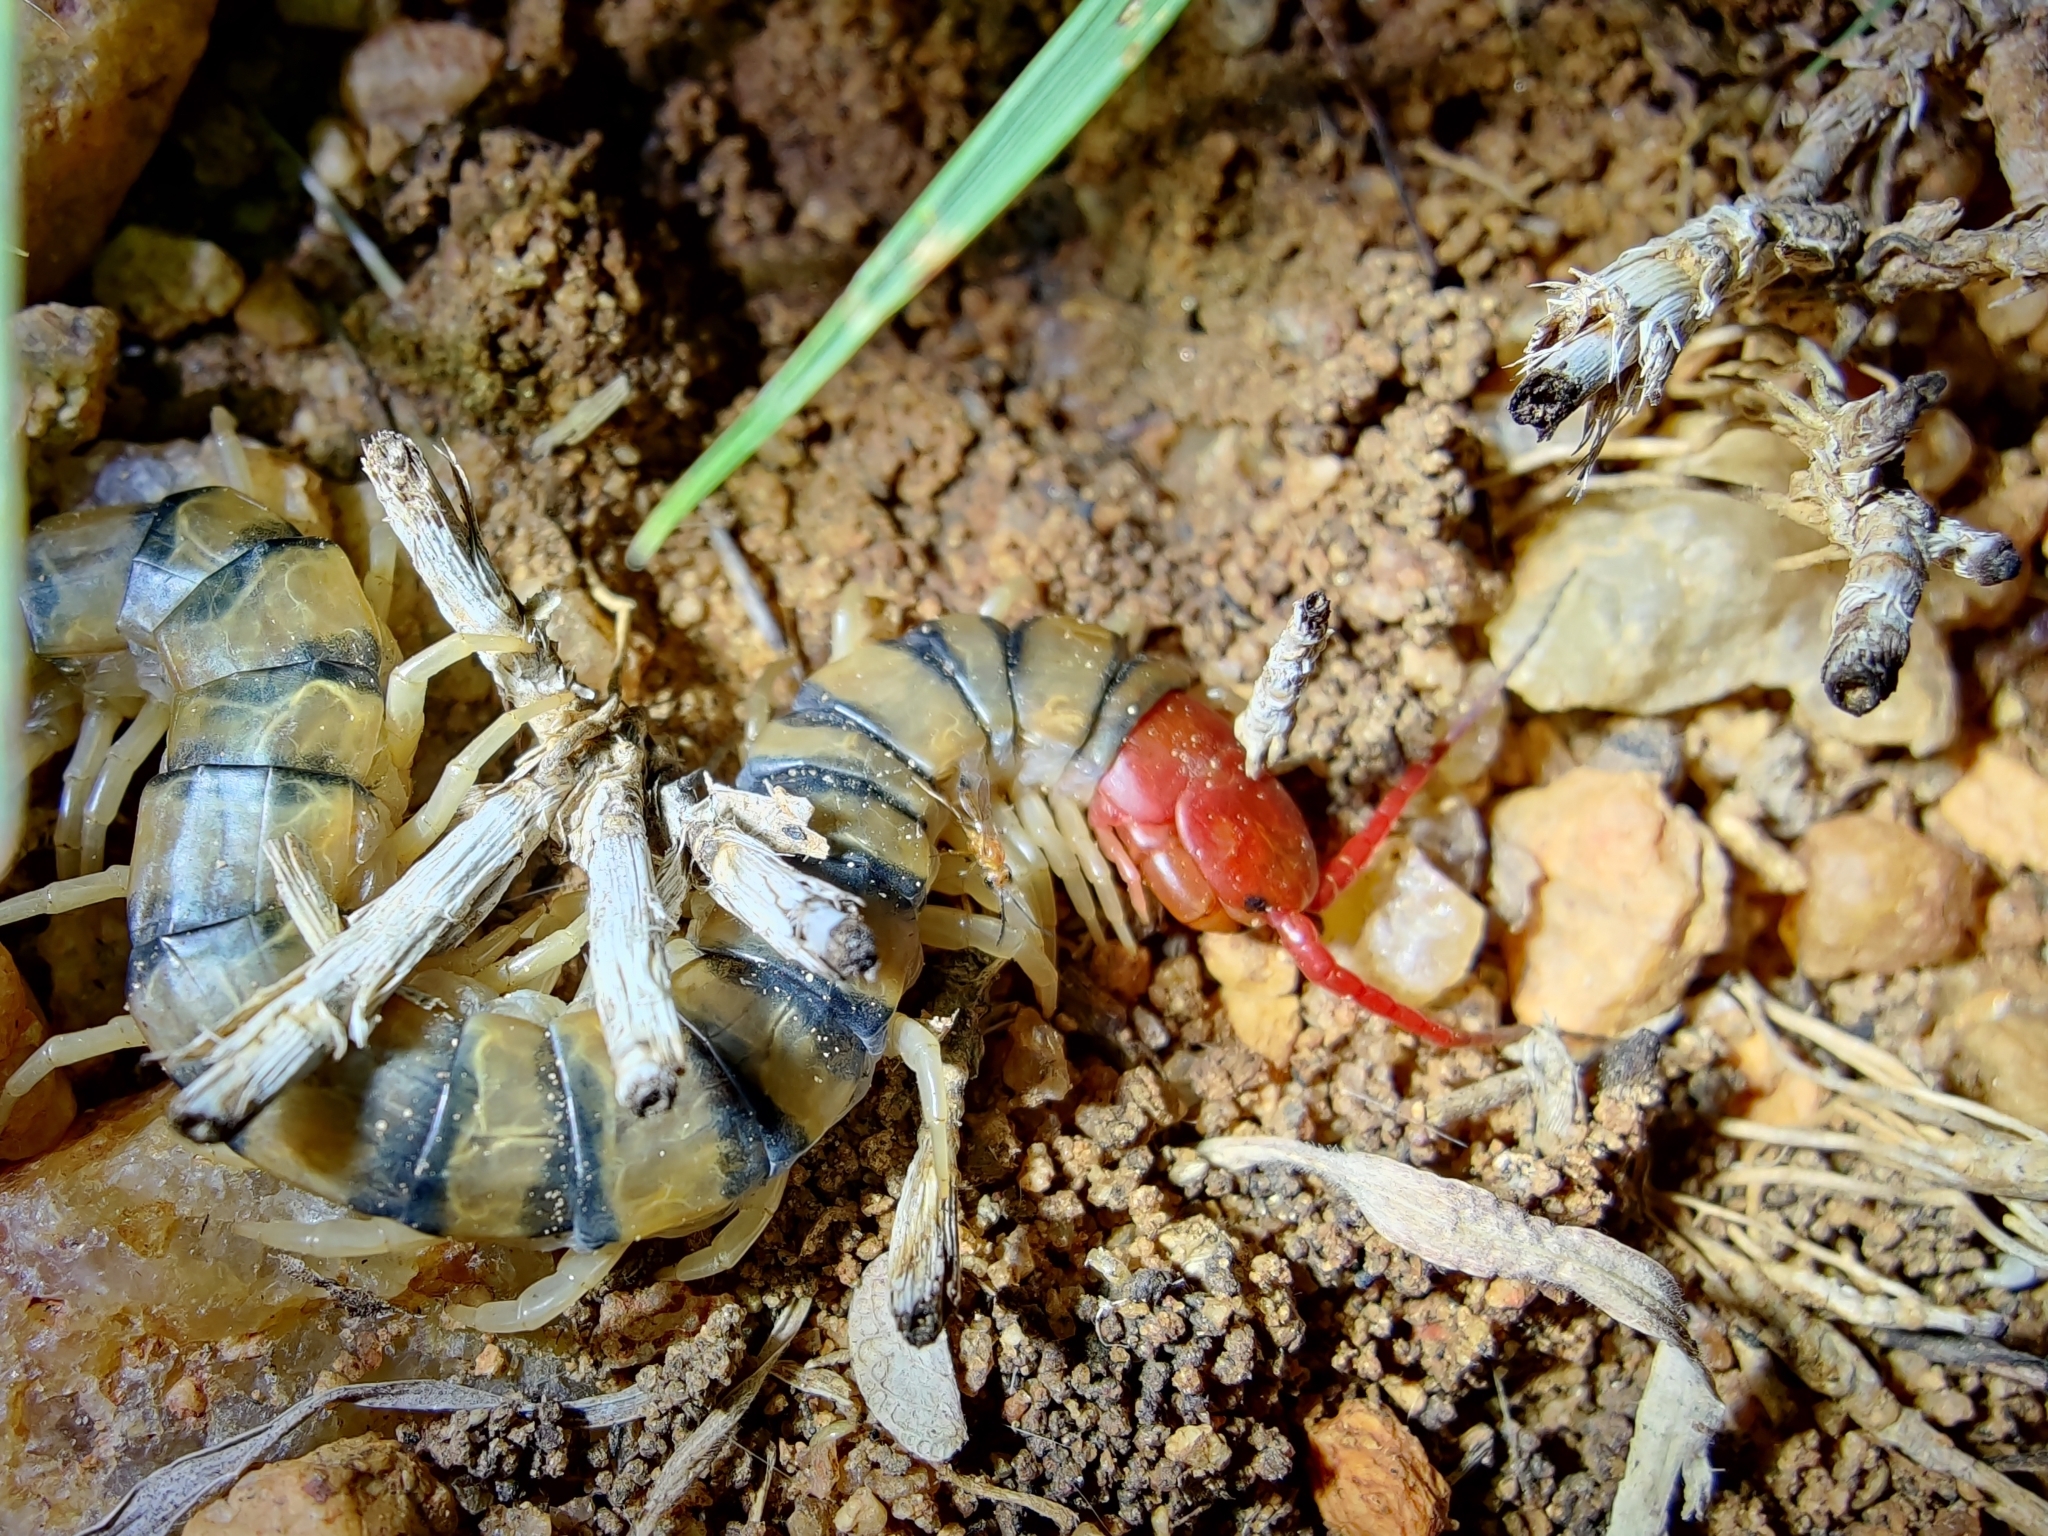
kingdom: Animalia
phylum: Arthropoda
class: Chilopoda
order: Scolopendromorpha
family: Scolopendridae
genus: Scolopendra
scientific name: Scolopendra morsitans
